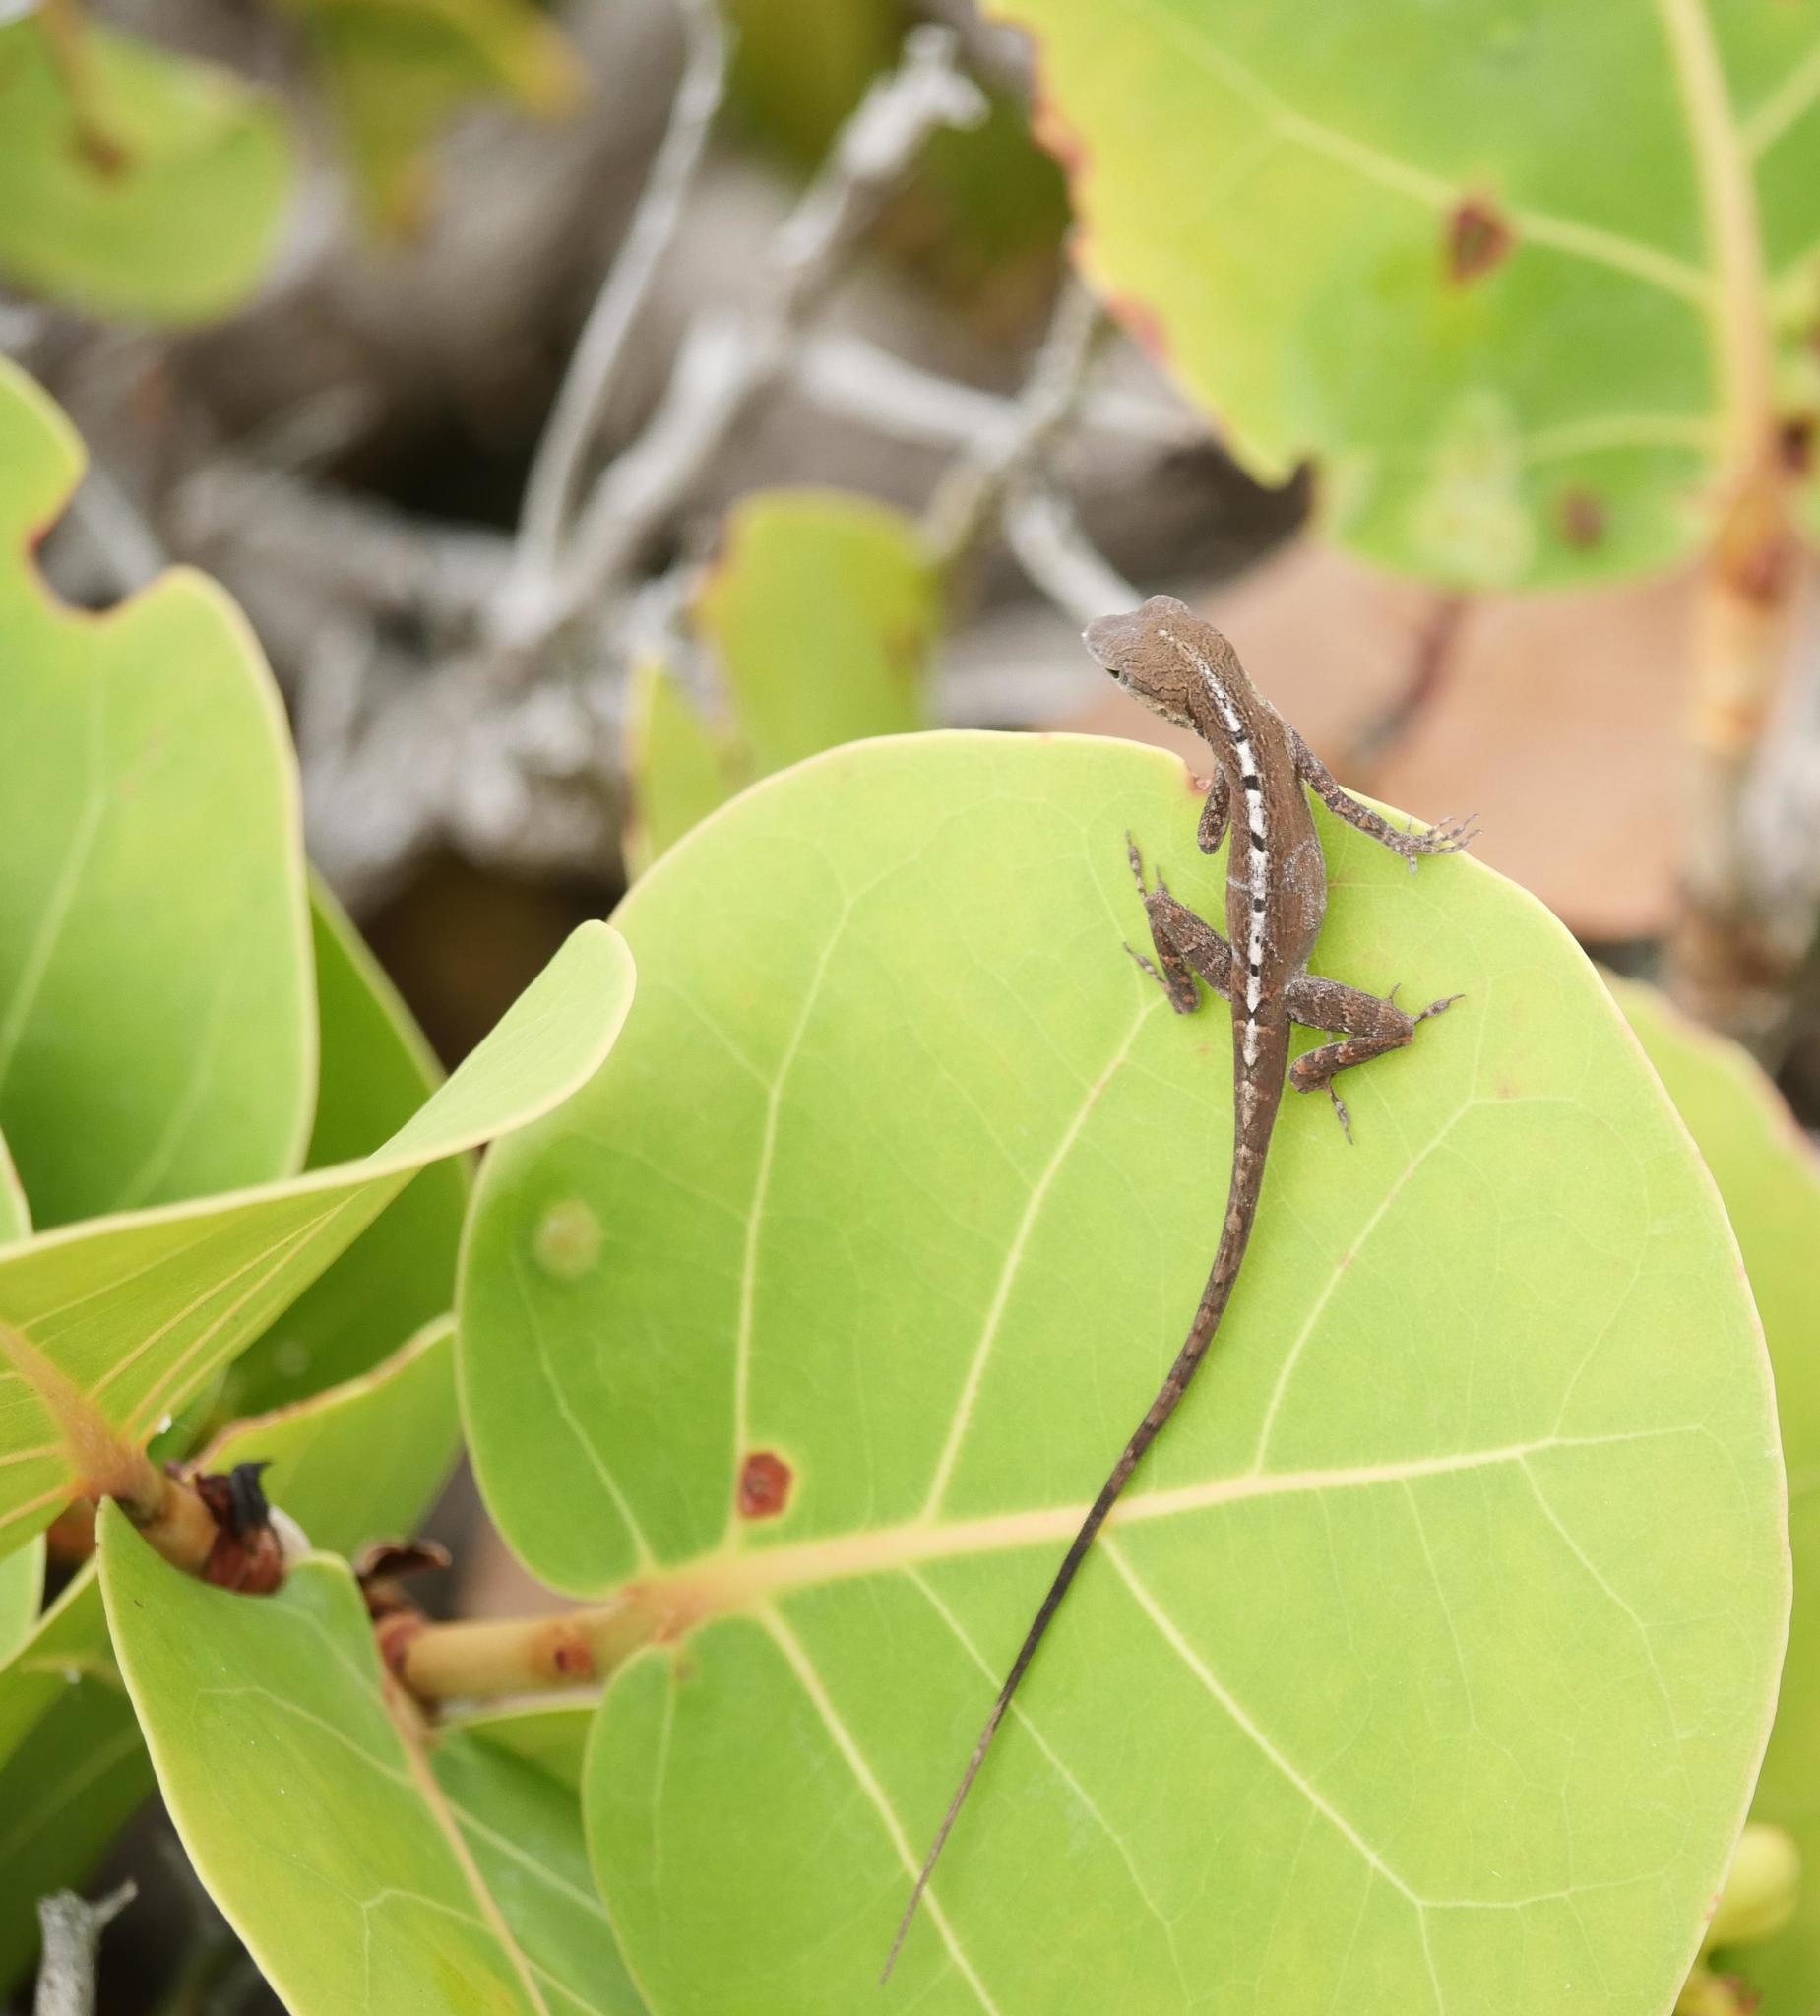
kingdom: Animalia
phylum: Chordata
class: Squamata
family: Dactyloidae
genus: Anolis
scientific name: Anolis scriptus
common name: Silver key anole
